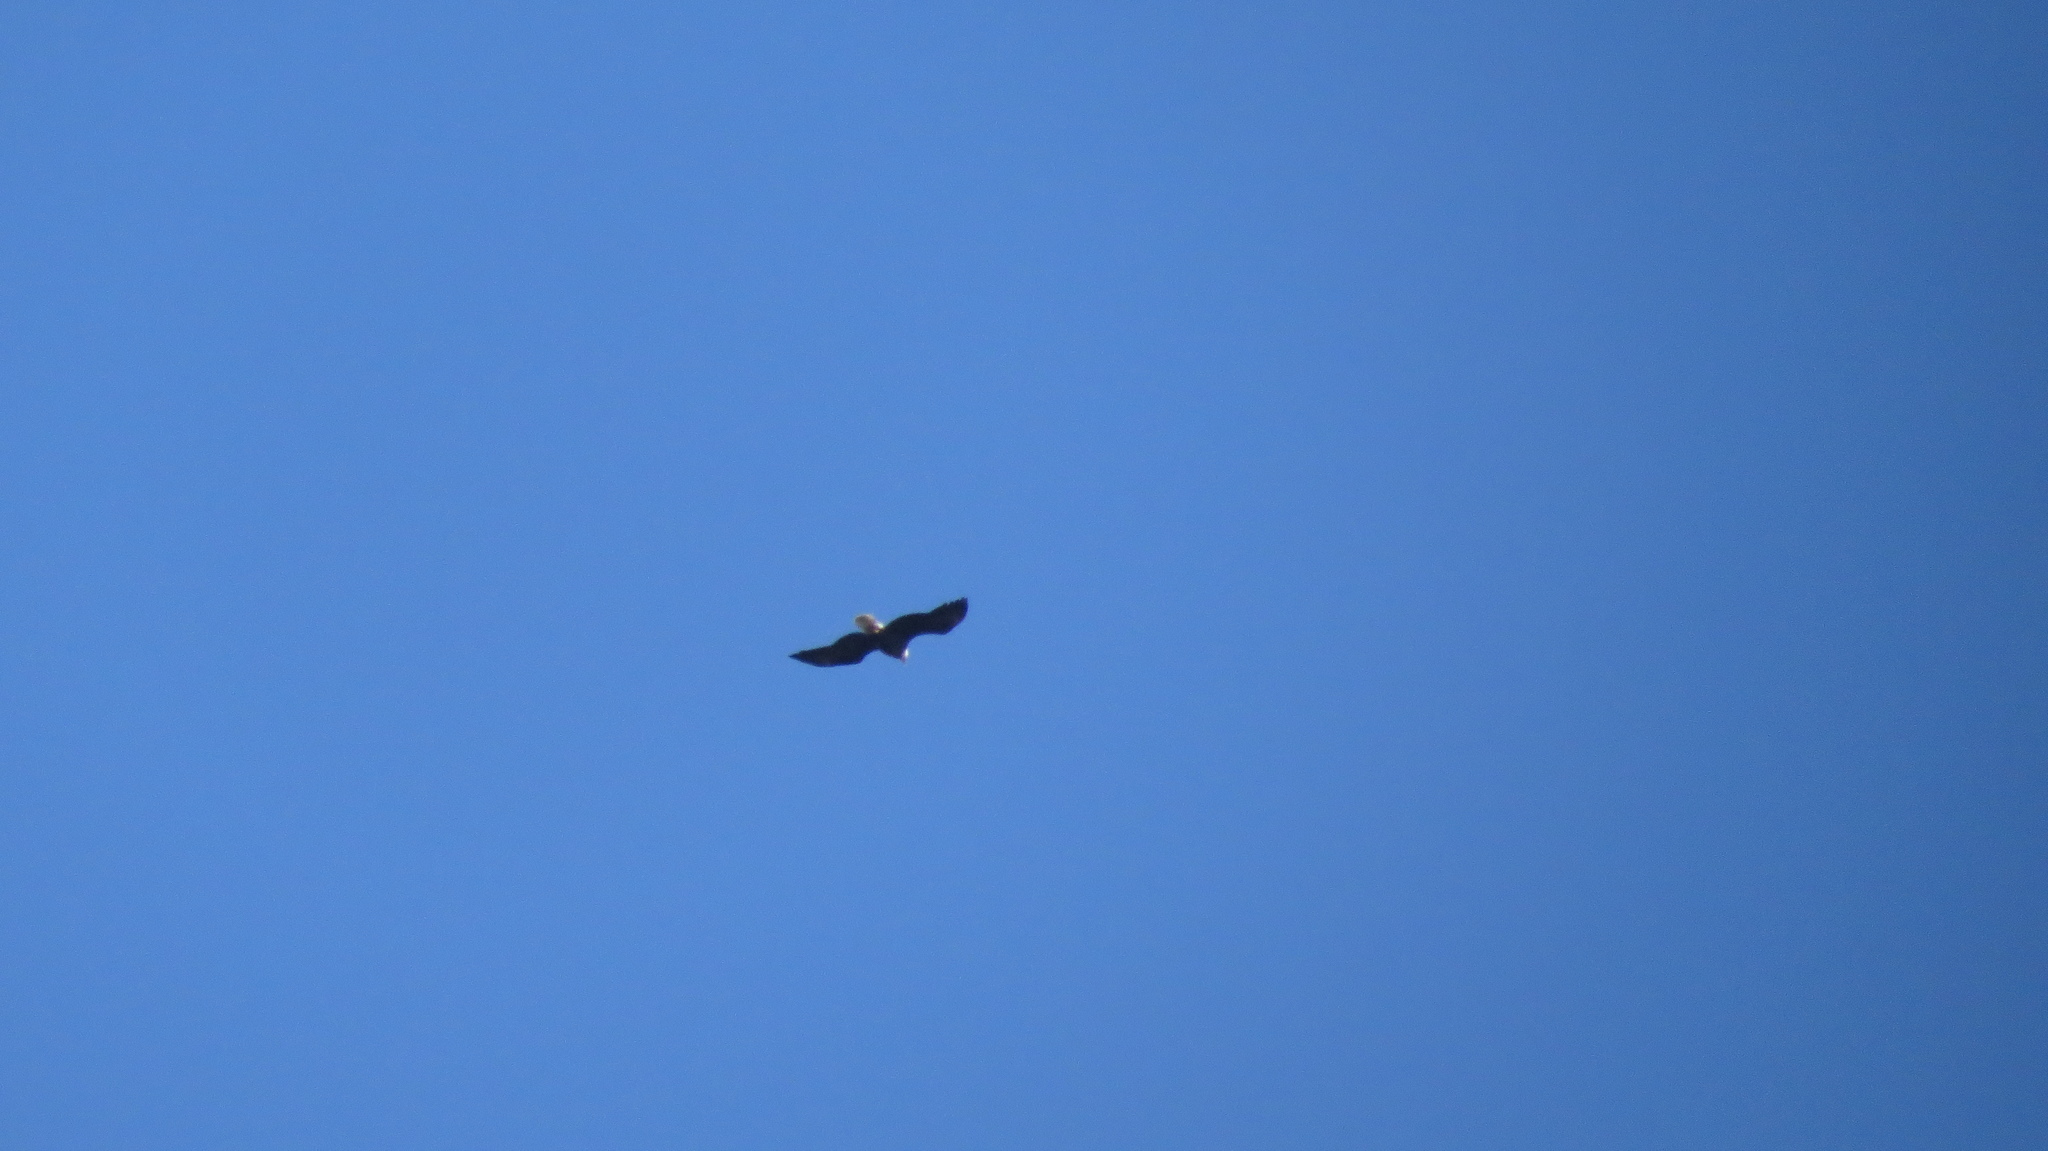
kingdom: Animalia
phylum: Chordata
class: Aves
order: Accipitriformes
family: Accipitridae
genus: Haliaeetus
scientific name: Haliaeetus leucocephalus
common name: Bald eagle
